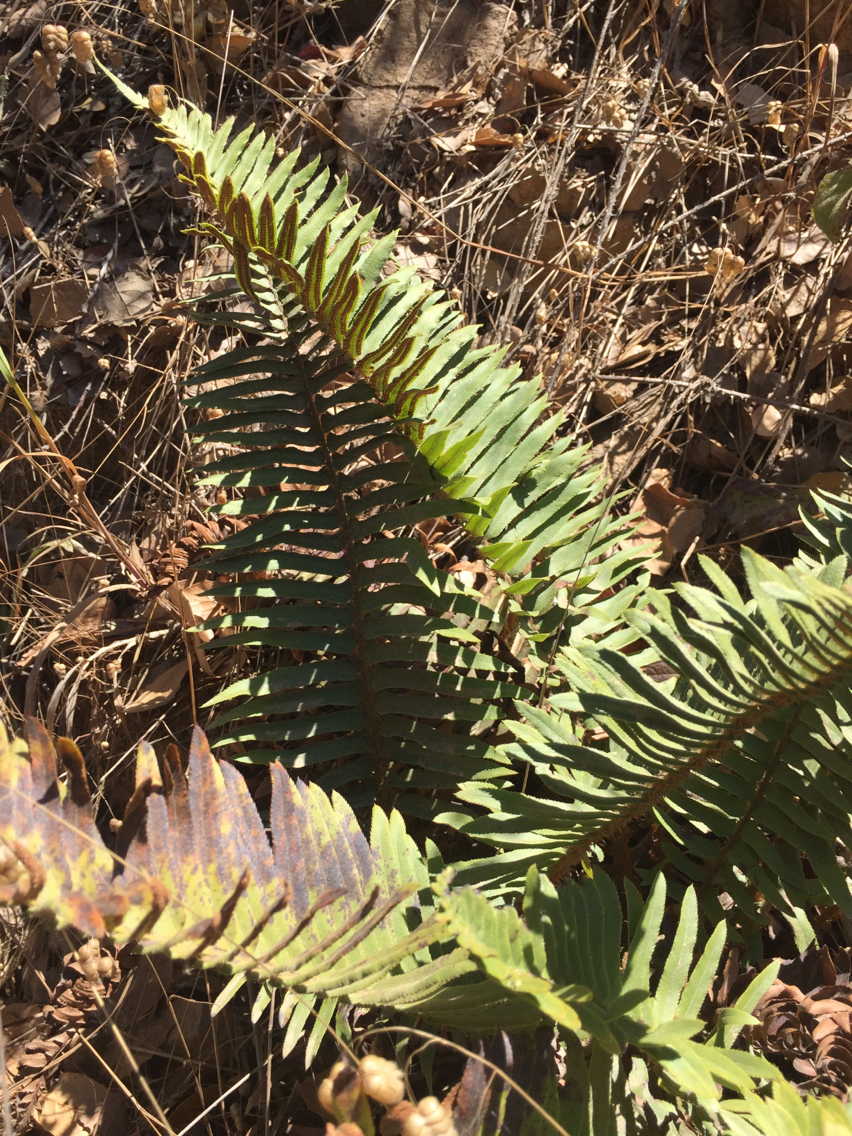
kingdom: Plantae
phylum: Tracheophyta
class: Polypodiopsida
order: Polypodiales
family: Dryopteridaceae
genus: Polystichum
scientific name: Polystichum munitum
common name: Western sword-fern
